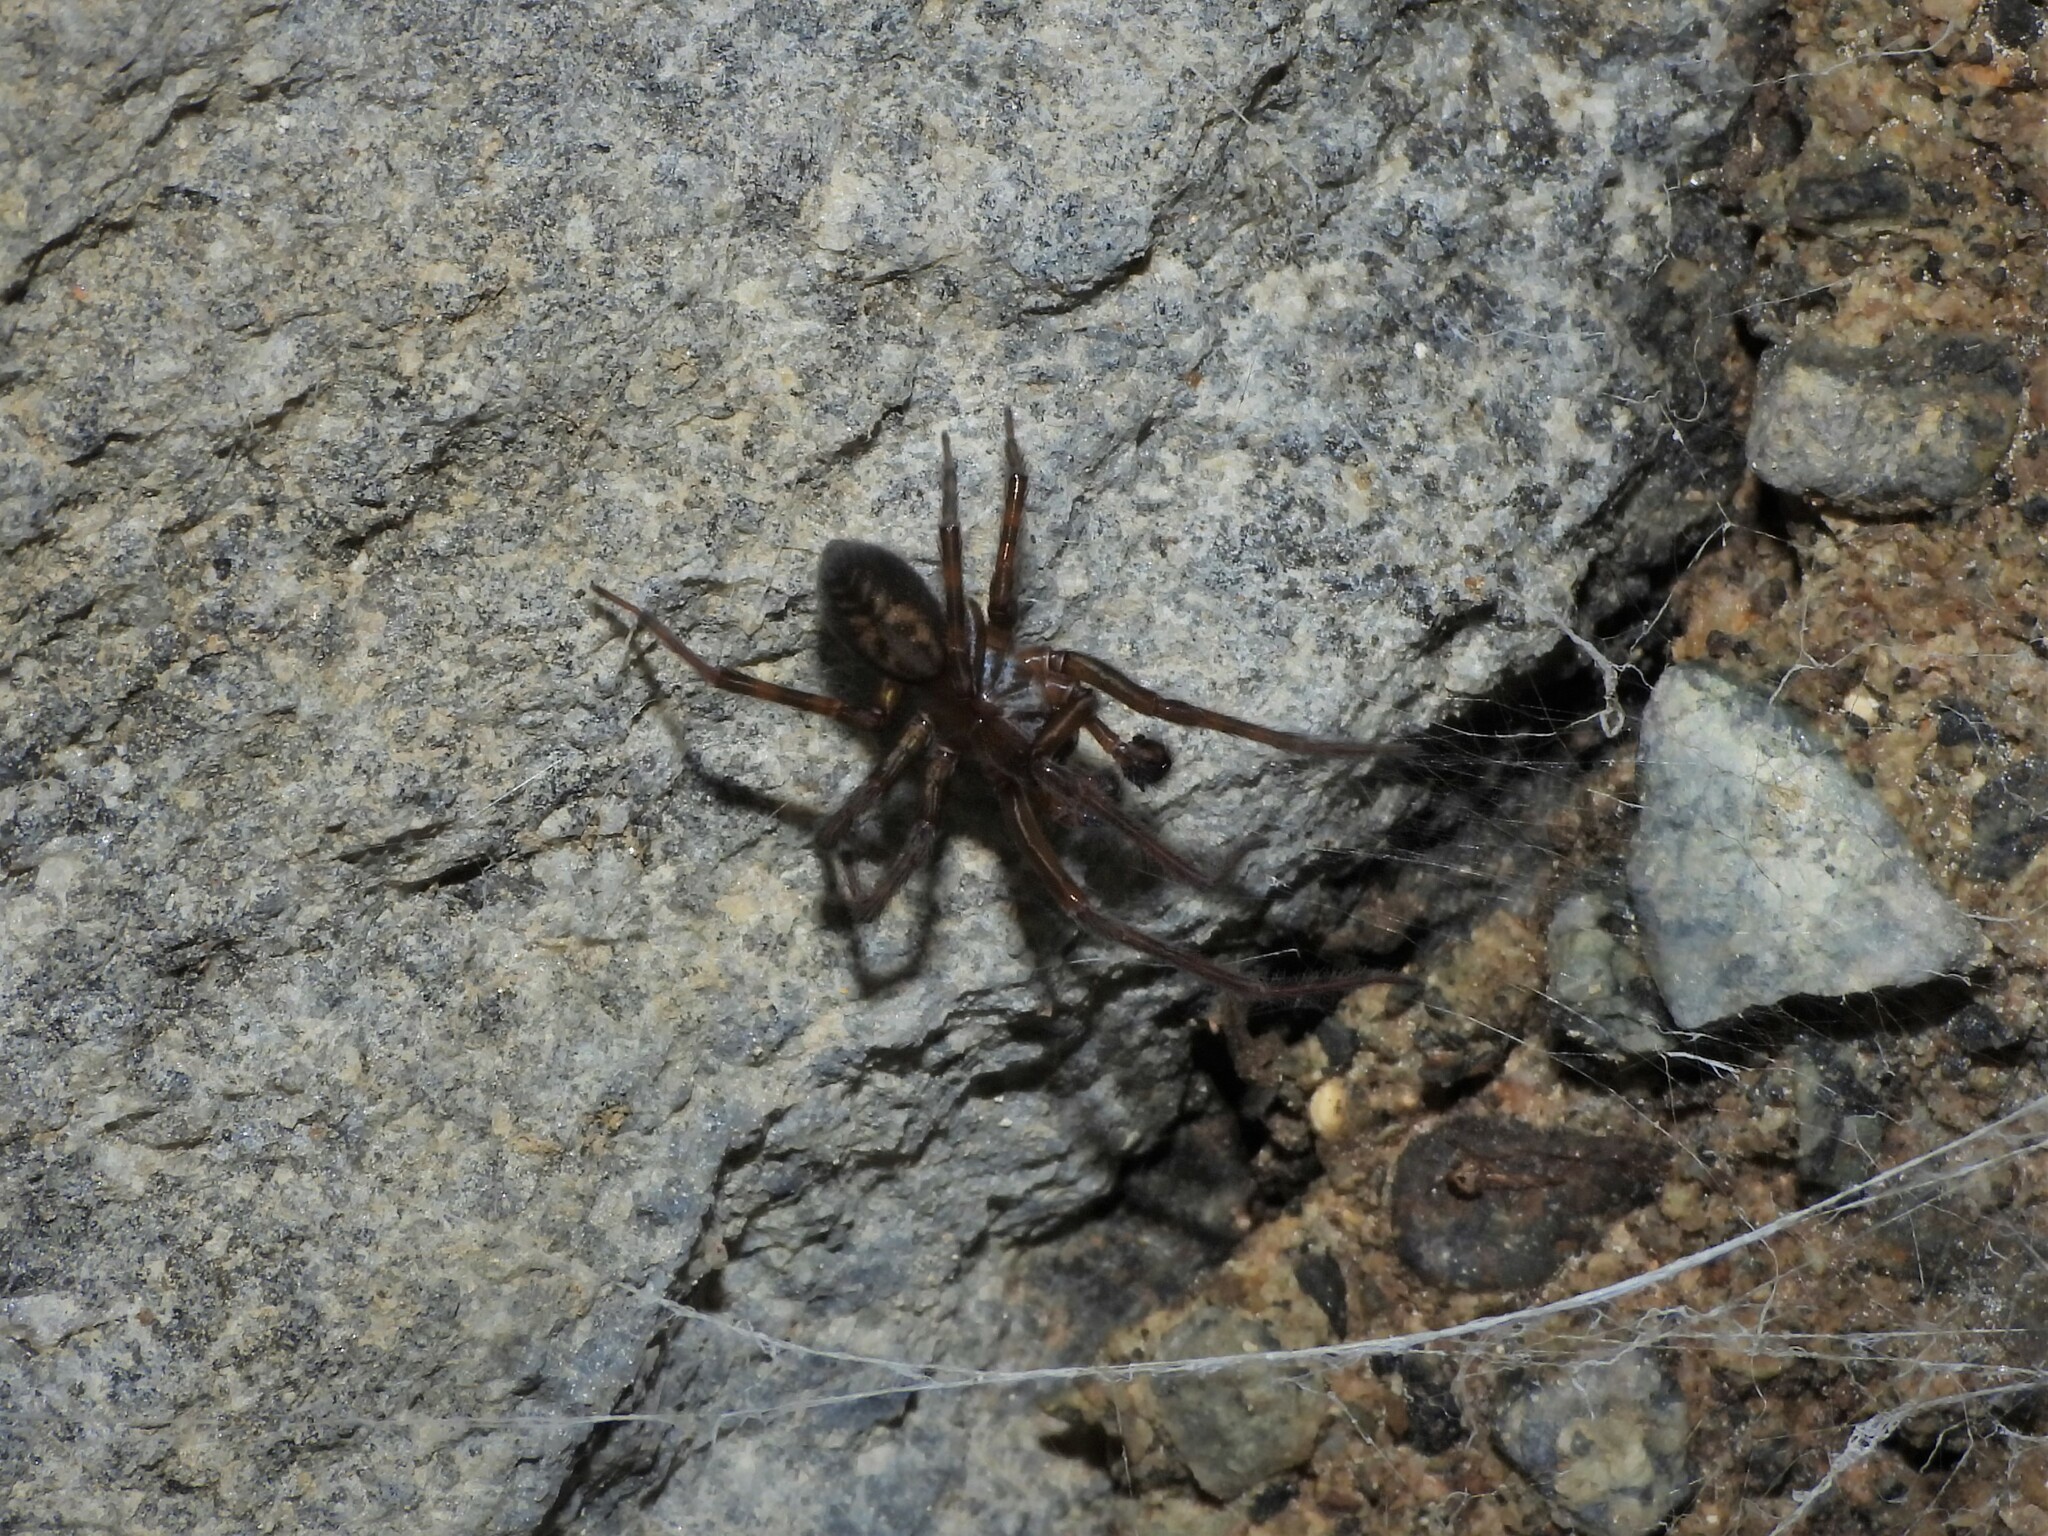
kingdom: Animalia
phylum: Arthropoda
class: Arachnida
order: Araneae
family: Amaurobiidae
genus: Amaurobius
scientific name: Amaurobius ferox
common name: Black laceweaver
